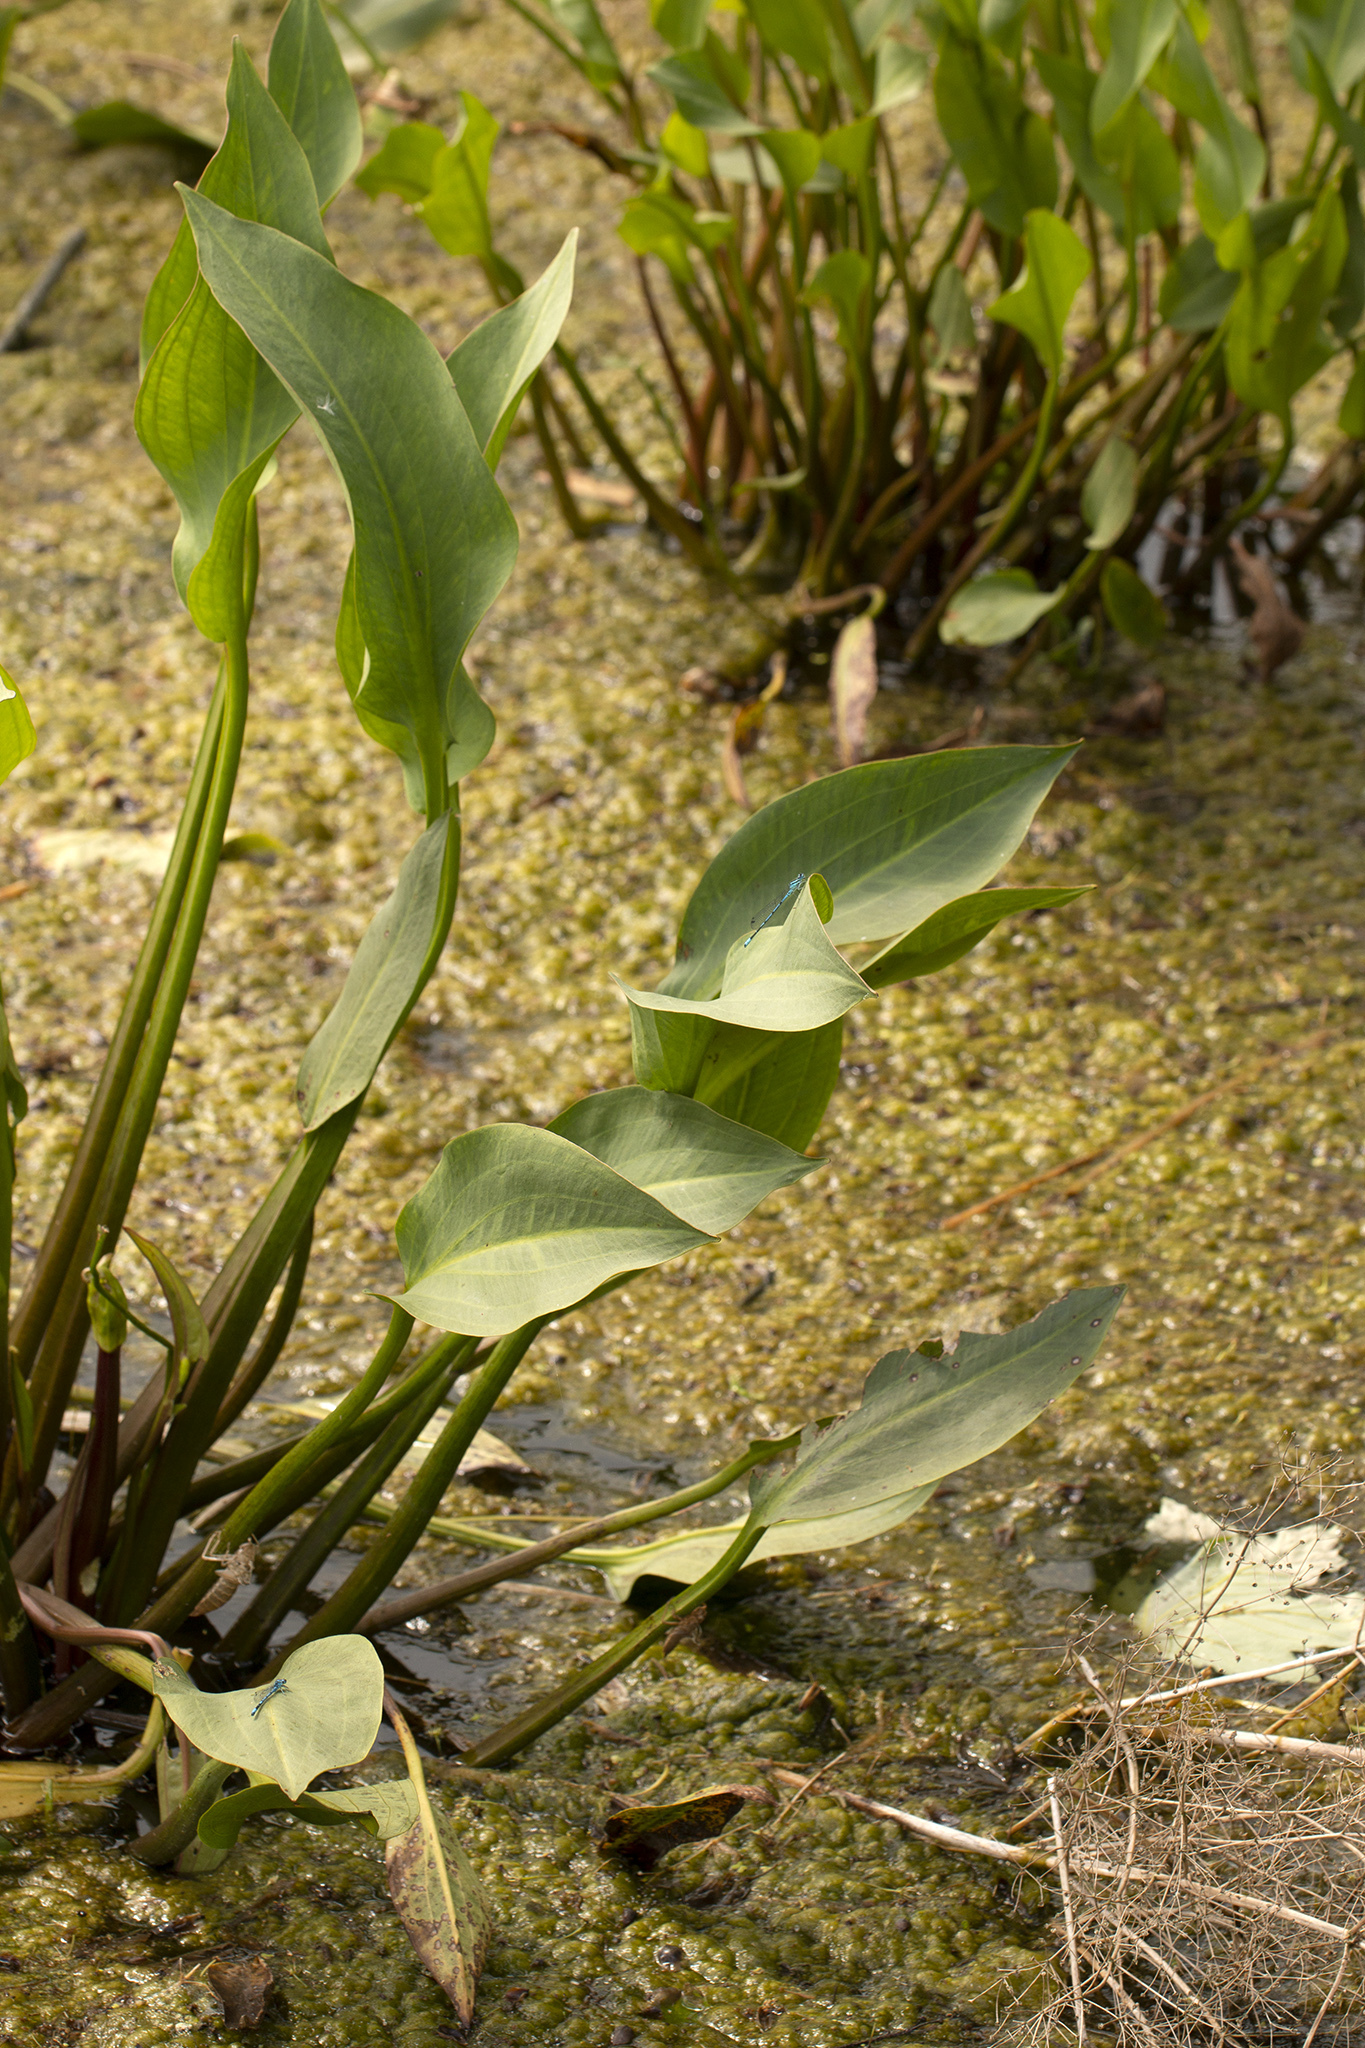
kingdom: Plantae
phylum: Tracheophyta
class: Liliopsida
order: Alismatales
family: Alismataceae
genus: Alisma
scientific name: Alisma plantago-aquatica
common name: Water-plantain
